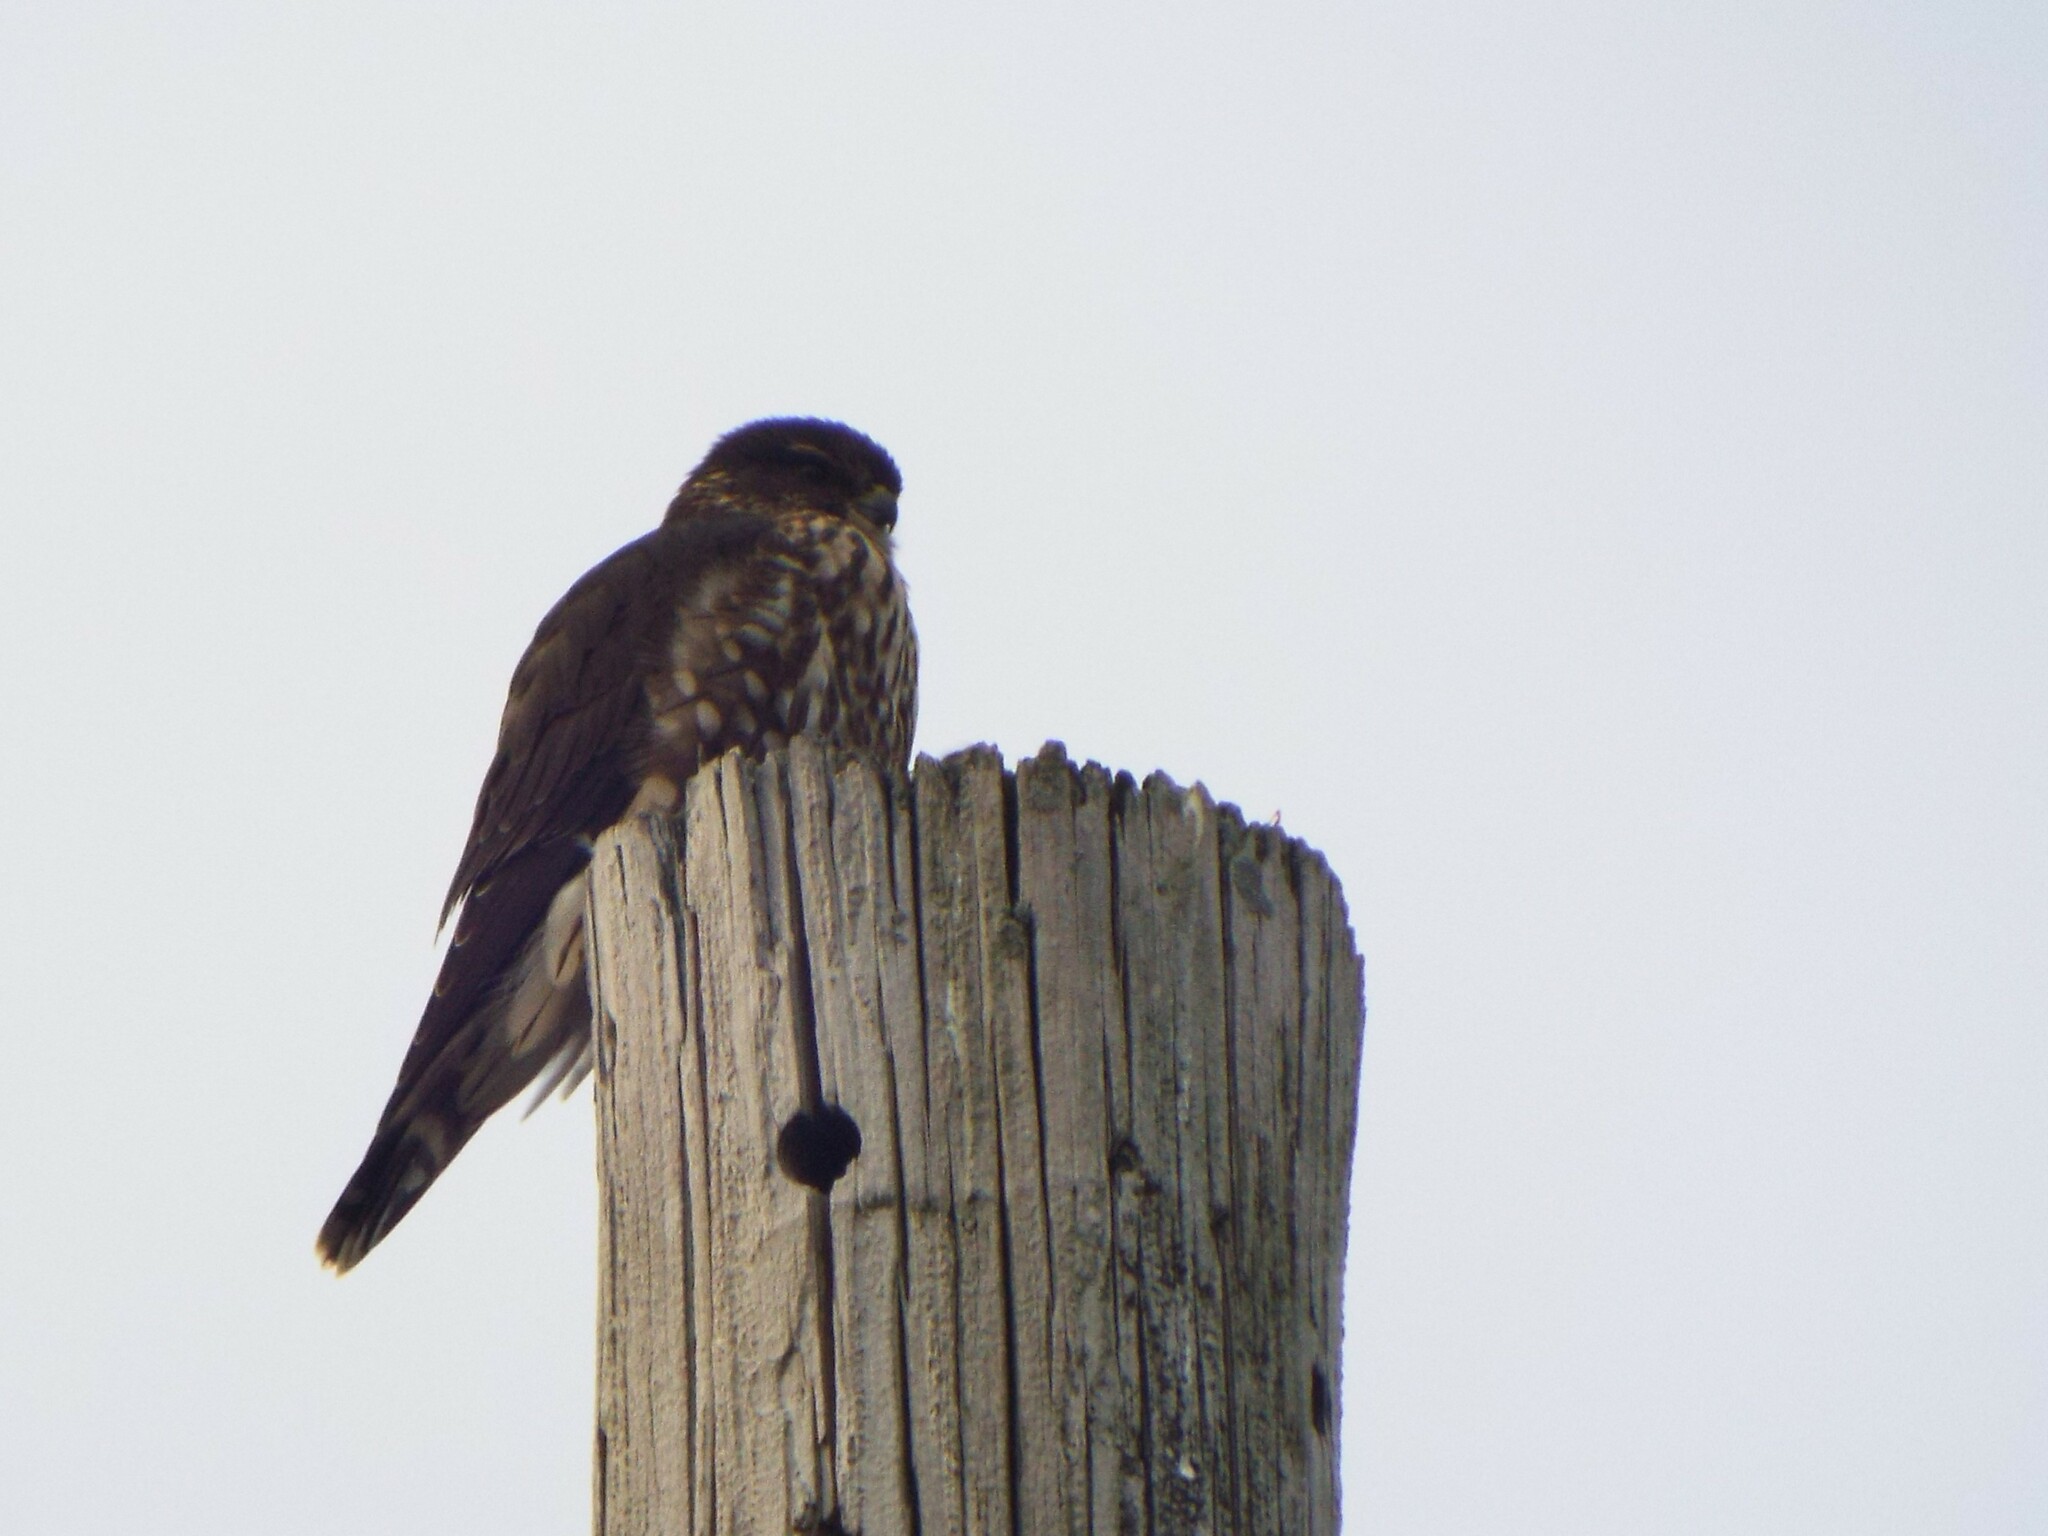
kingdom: Animalia
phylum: Chordata
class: Aves
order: Falconiformes
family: Falconidae
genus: Falco
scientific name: Falco columbarius
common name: Merlin
